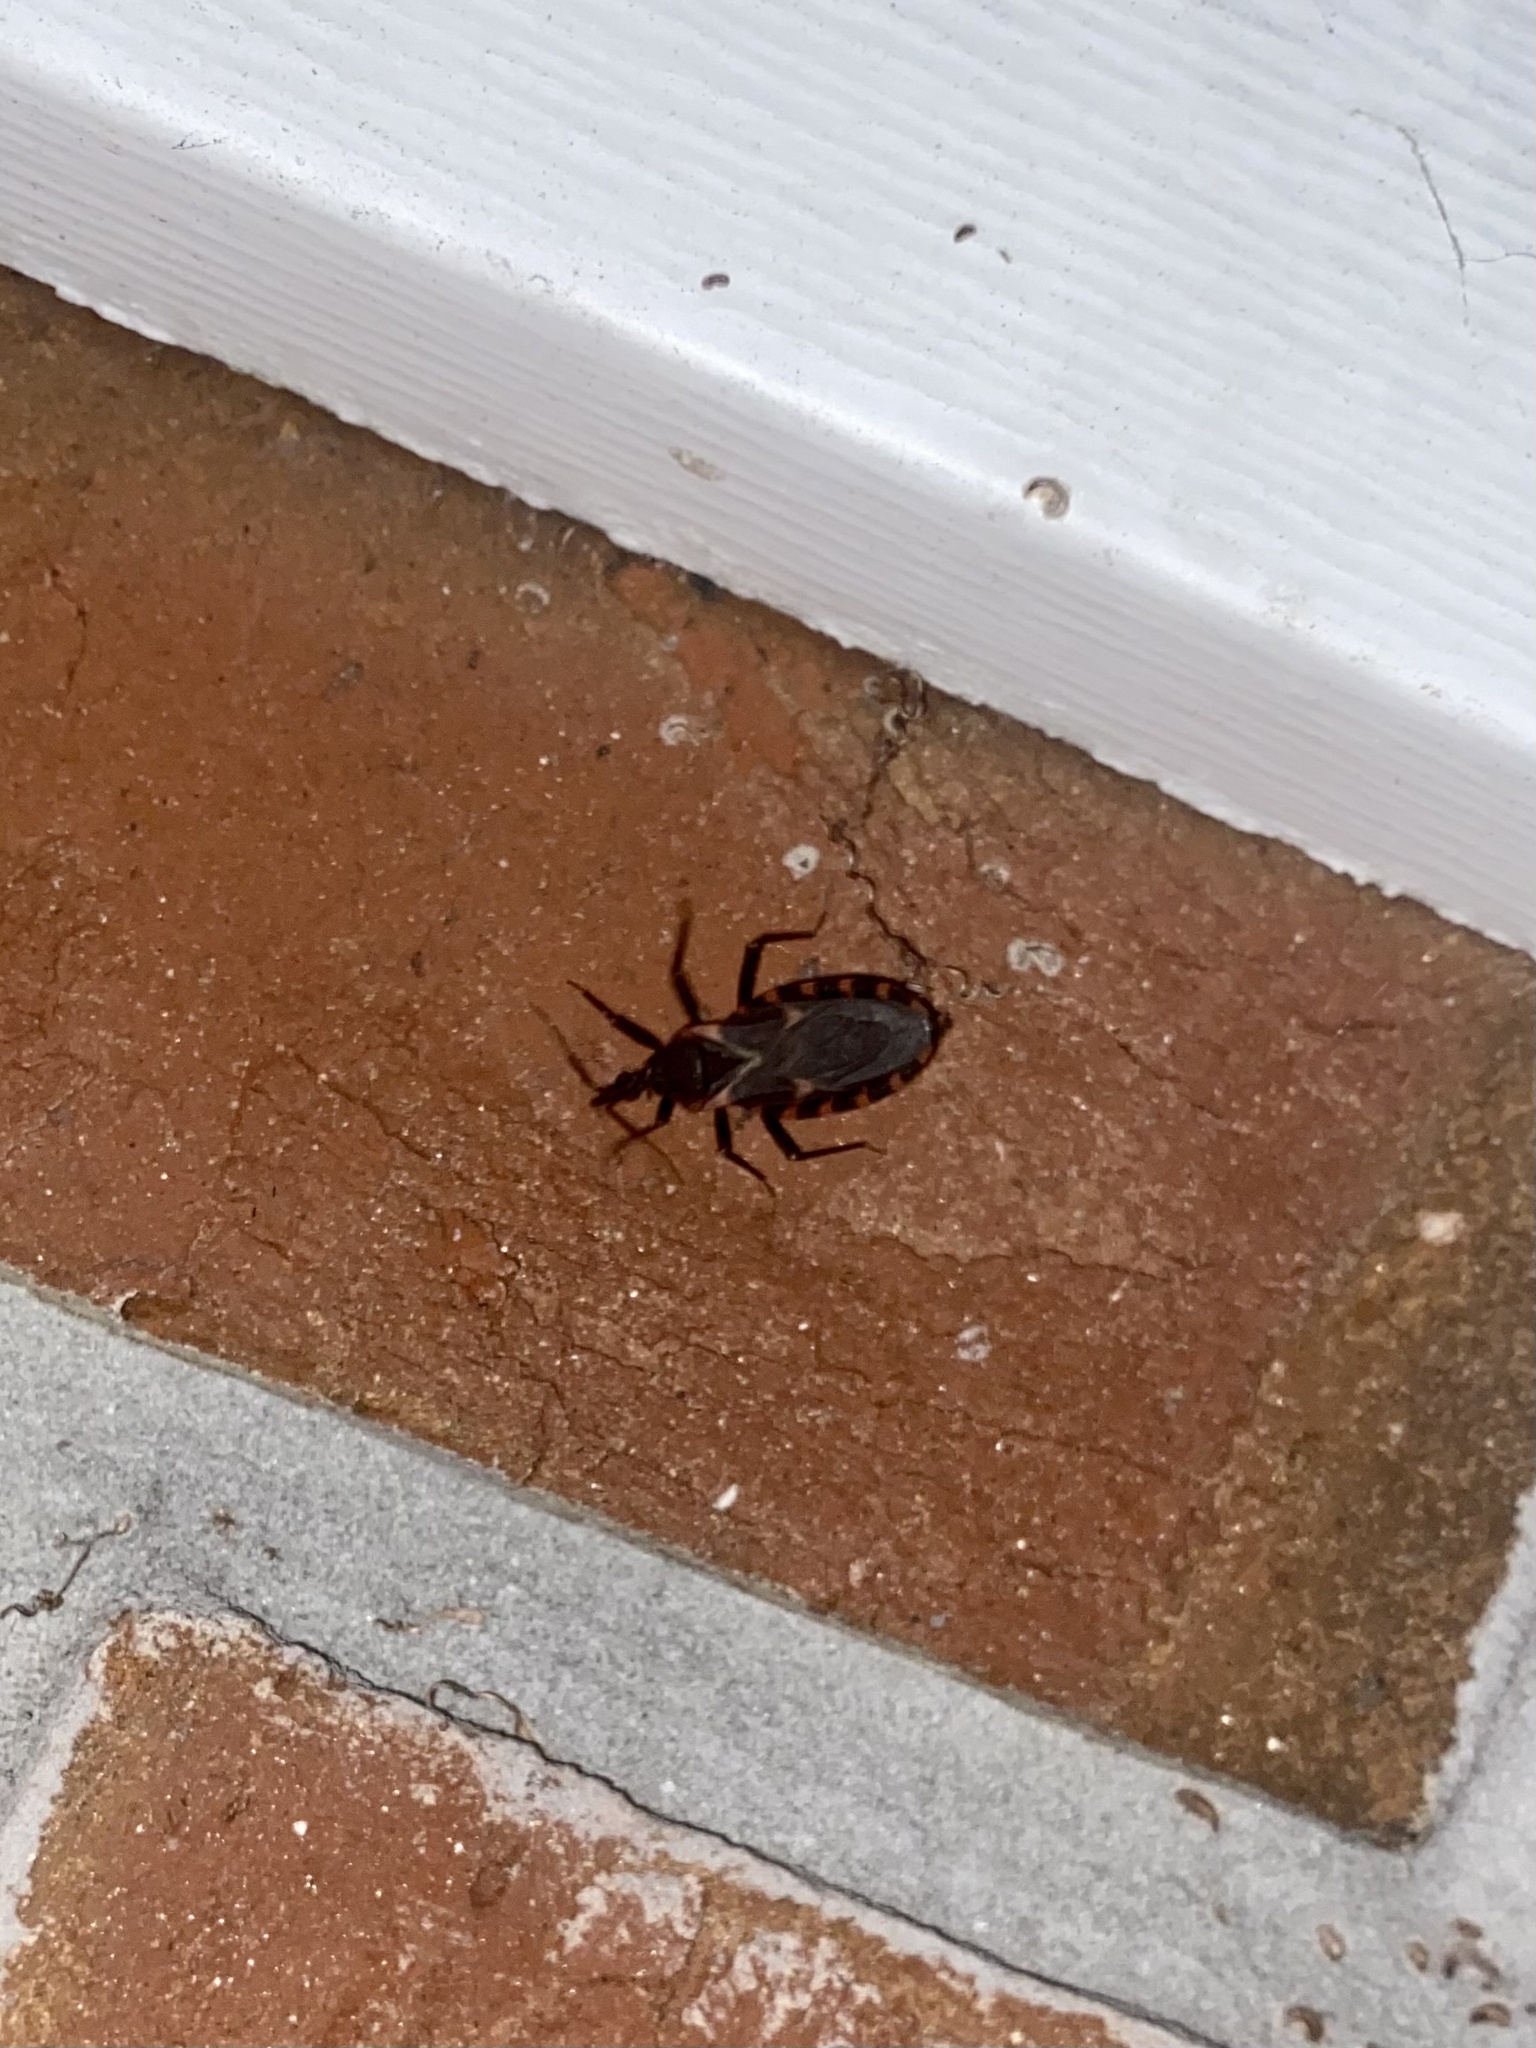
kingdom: Animalia
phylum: Arthropoda
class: Insecta
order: Hemiptera
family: Reduviidae
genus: Triatoma
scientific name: Triatoma sanguisuga
